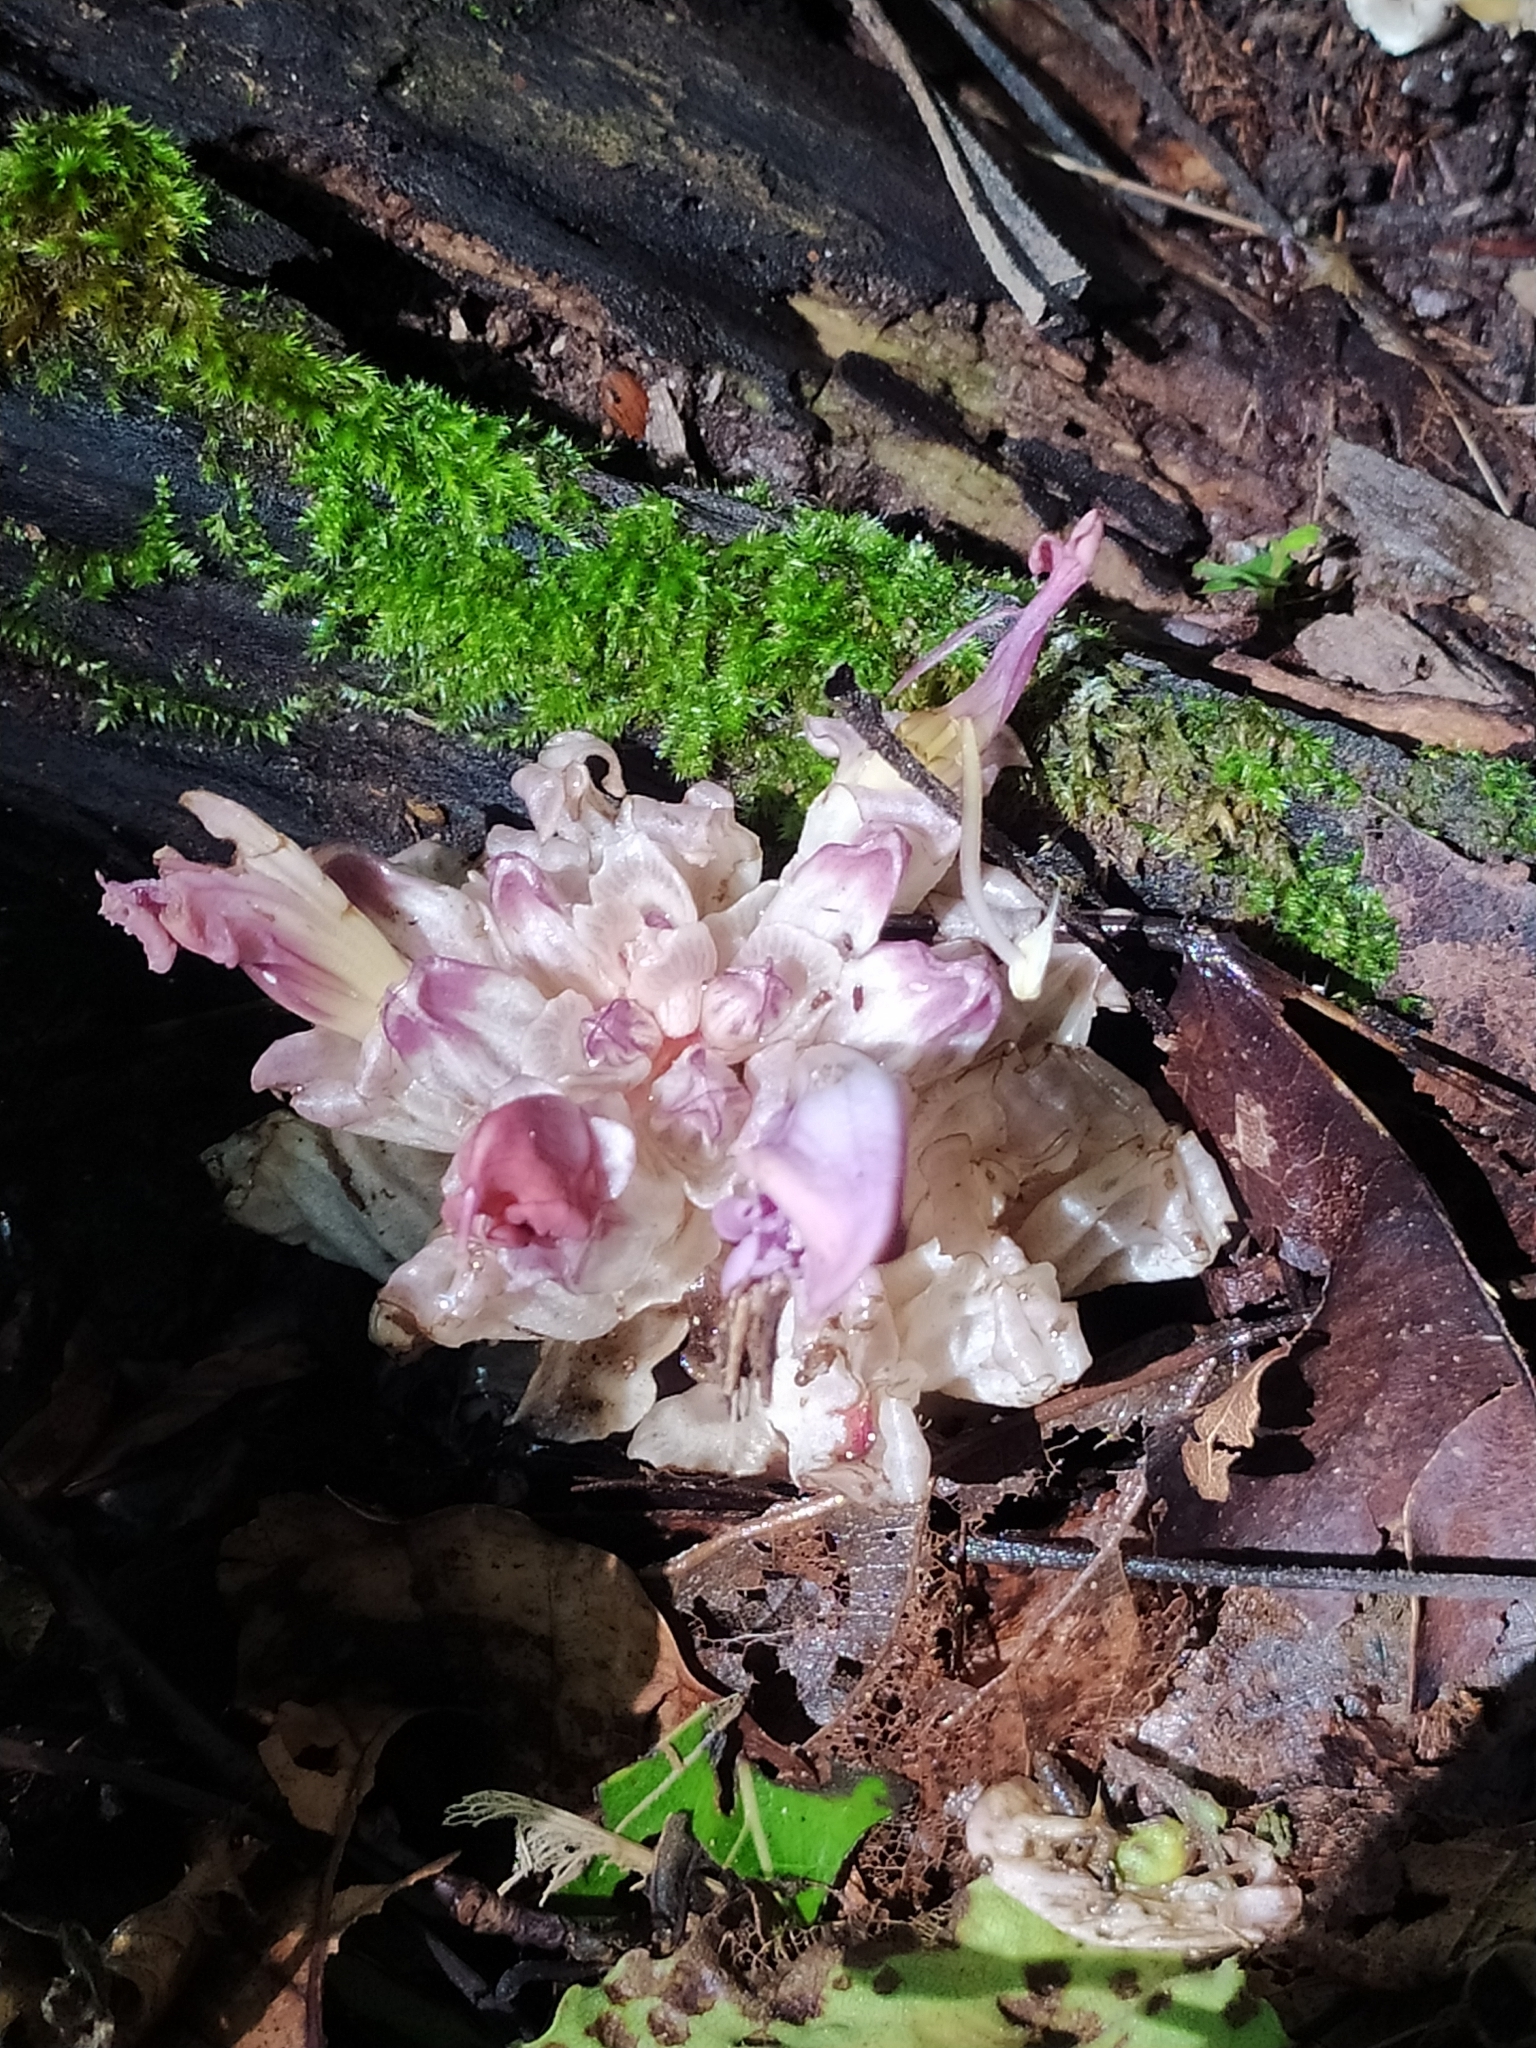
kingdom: Plantae
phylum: Tracheophyta
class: Magnoliopsida
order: Lamiales
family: Orobanchaceae
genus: Lathraea
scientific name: Lathraea clandestina
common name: Purple toothwort
